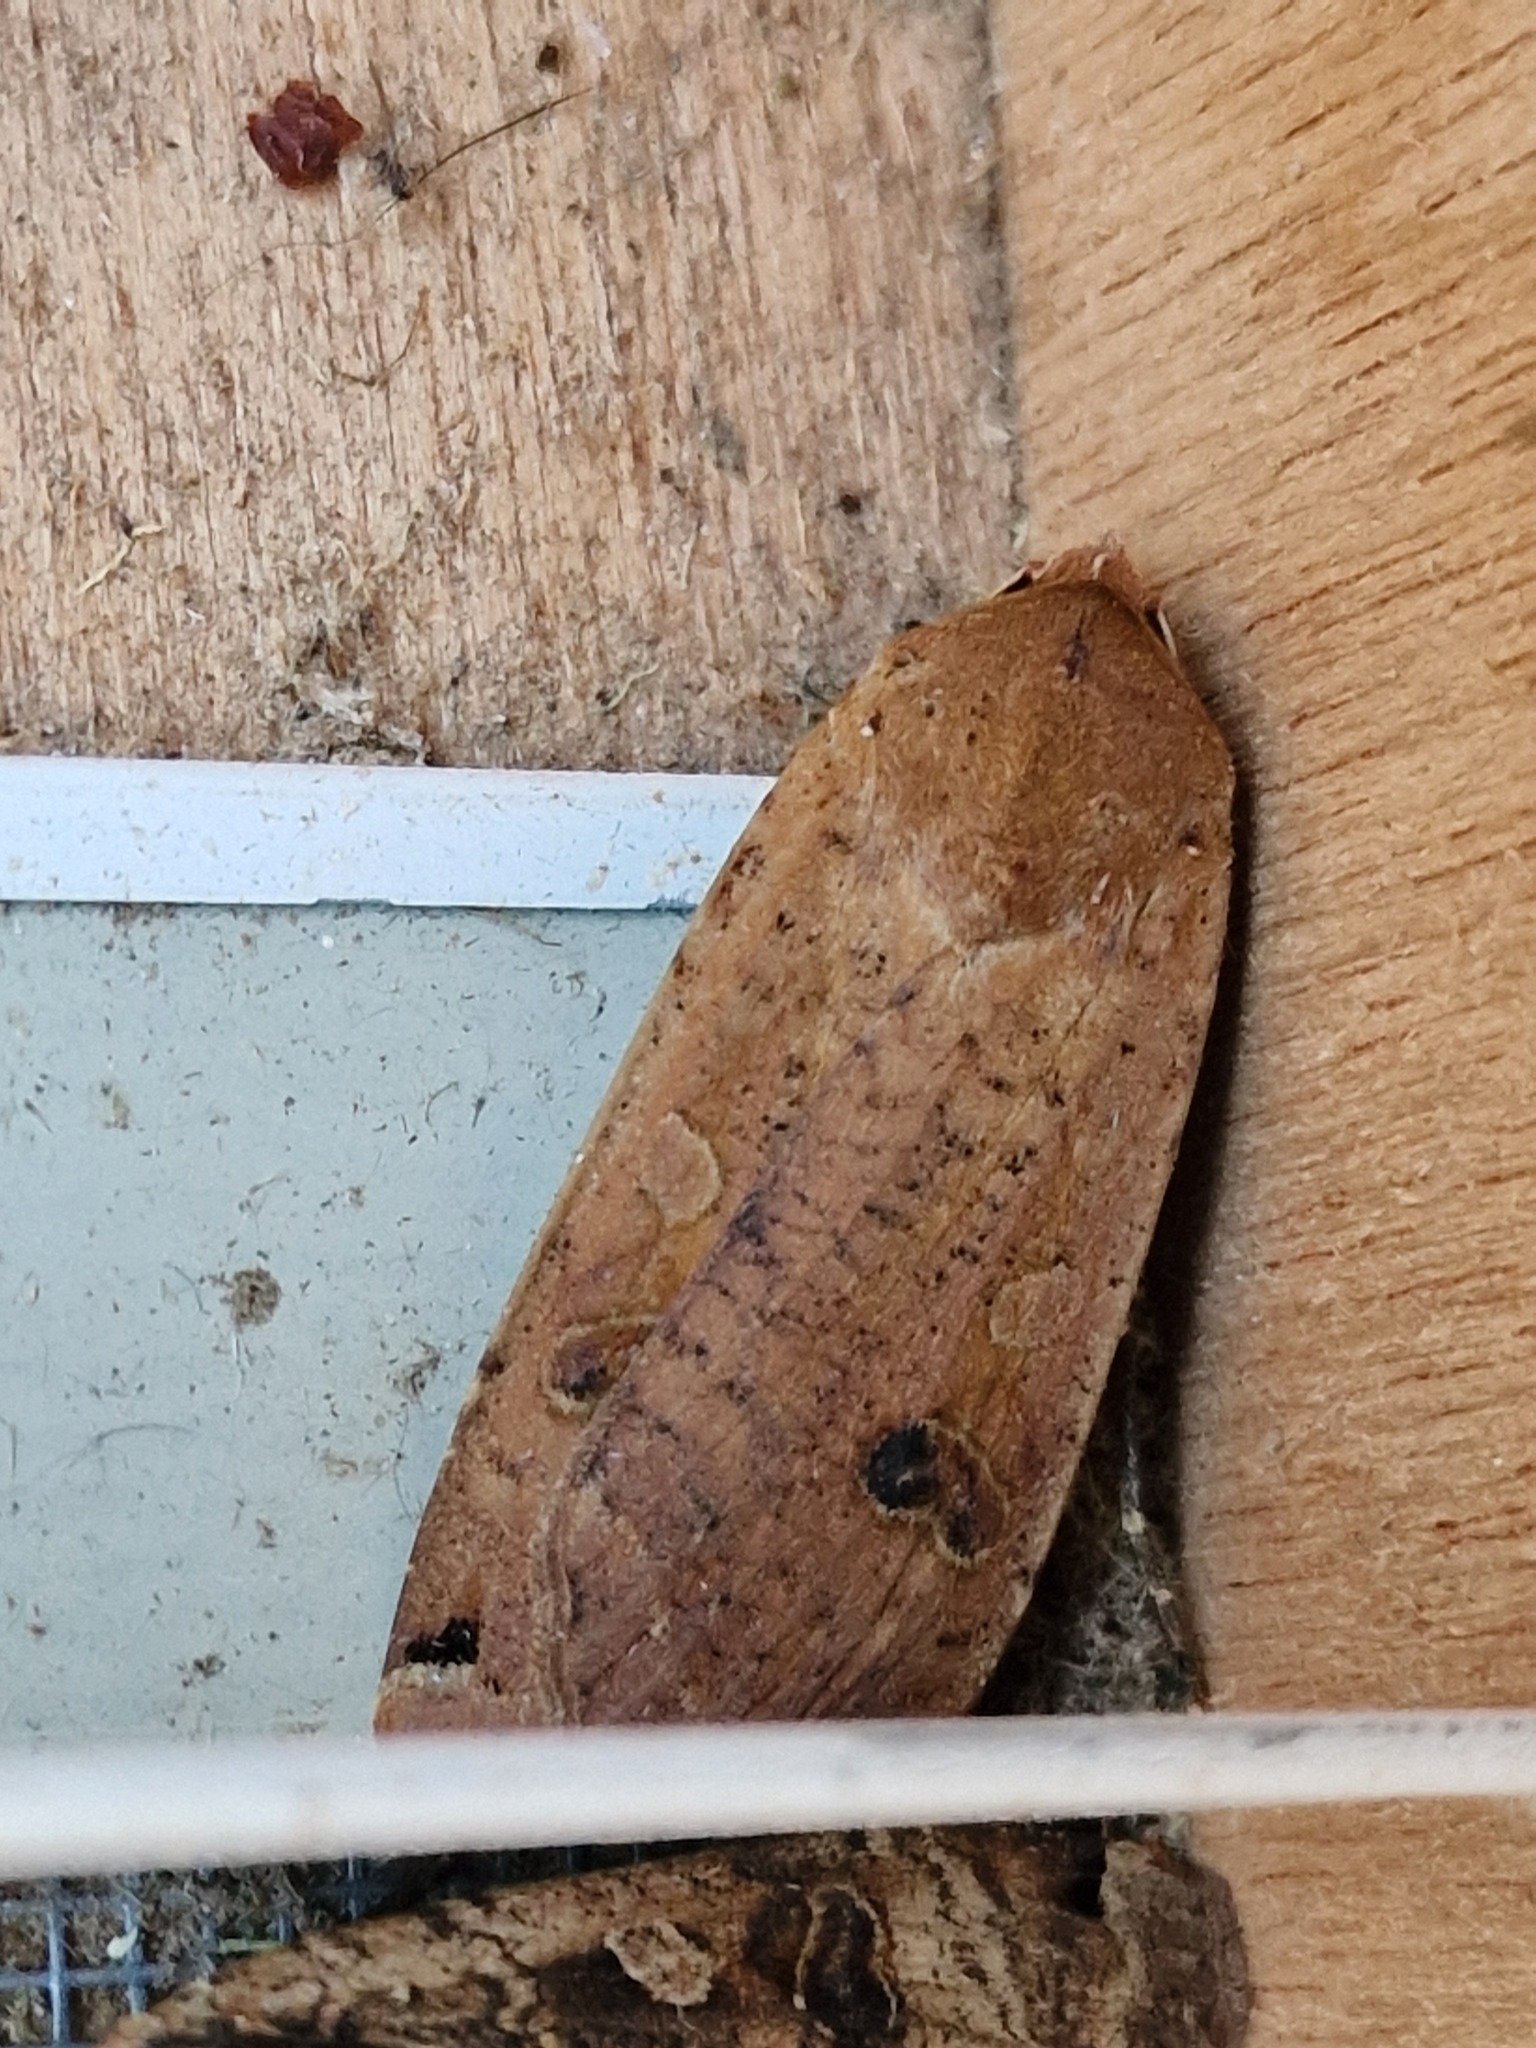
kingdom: Animalia
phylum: Arthropoda
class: Insecta
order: Lepidoptera
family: Noctuidae
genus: Noctua
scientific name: Noctua pronuba
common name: Large yellow underwing
